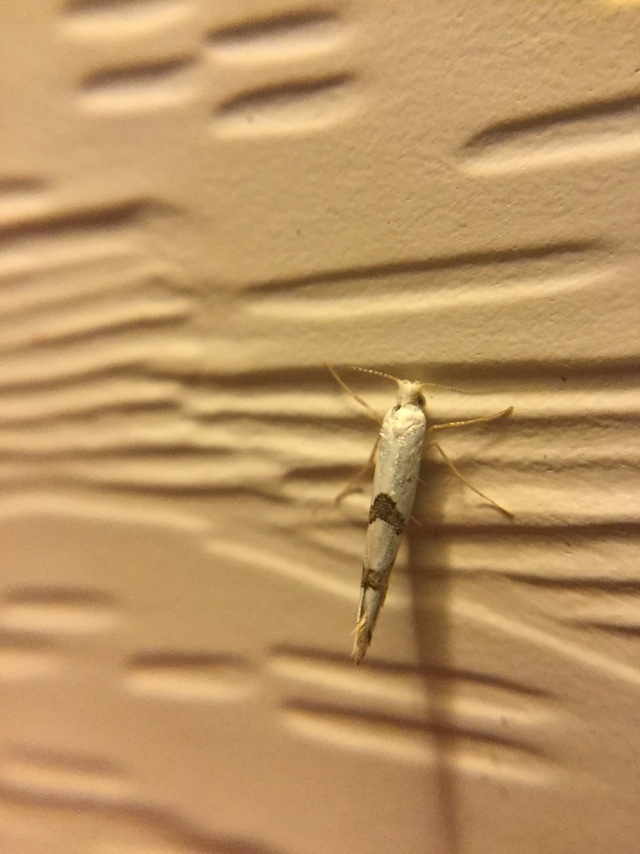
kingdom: Animalia
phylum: Arthropoda
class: Insecta
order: Lepidoptera
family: Argyresthiidae
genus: Argyresthia
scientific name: Argyresthia oreasella
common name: Cherry shoot borer moth
